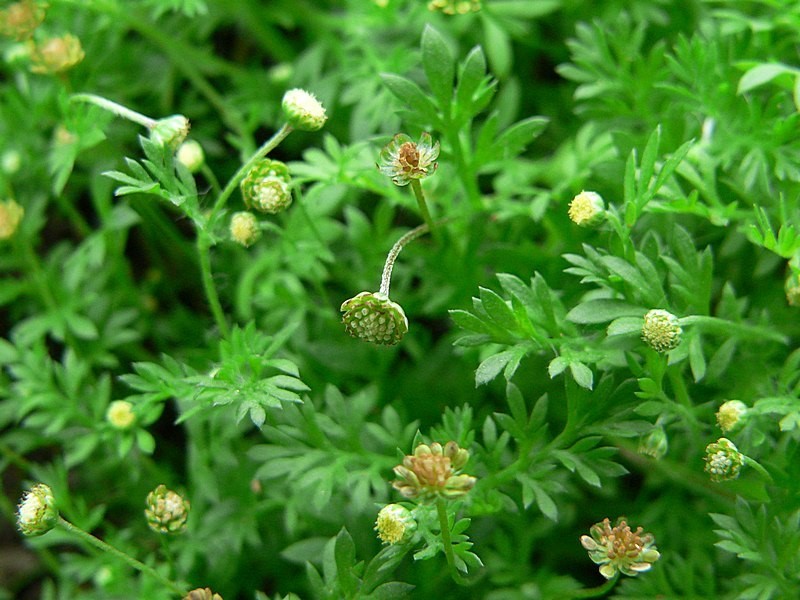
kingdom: Plantae
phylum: Tracheophyta
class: Magnoliopsida
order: Asterales
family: Asteraceae
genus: Cotula
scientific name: Cotula australis
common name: Australian waterbuttons
